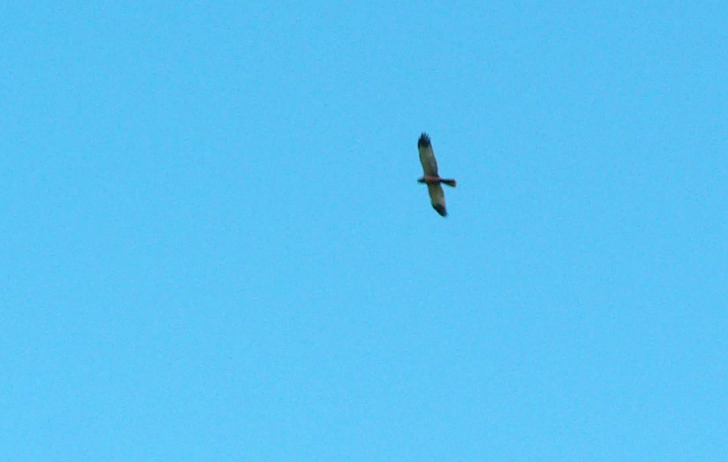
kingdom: Animalia
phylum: Chordata
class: Aves
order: Accipitriformes
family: Accipitridae
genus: Circus
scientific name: Circus aeruginosus
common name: Western marsh harrier
